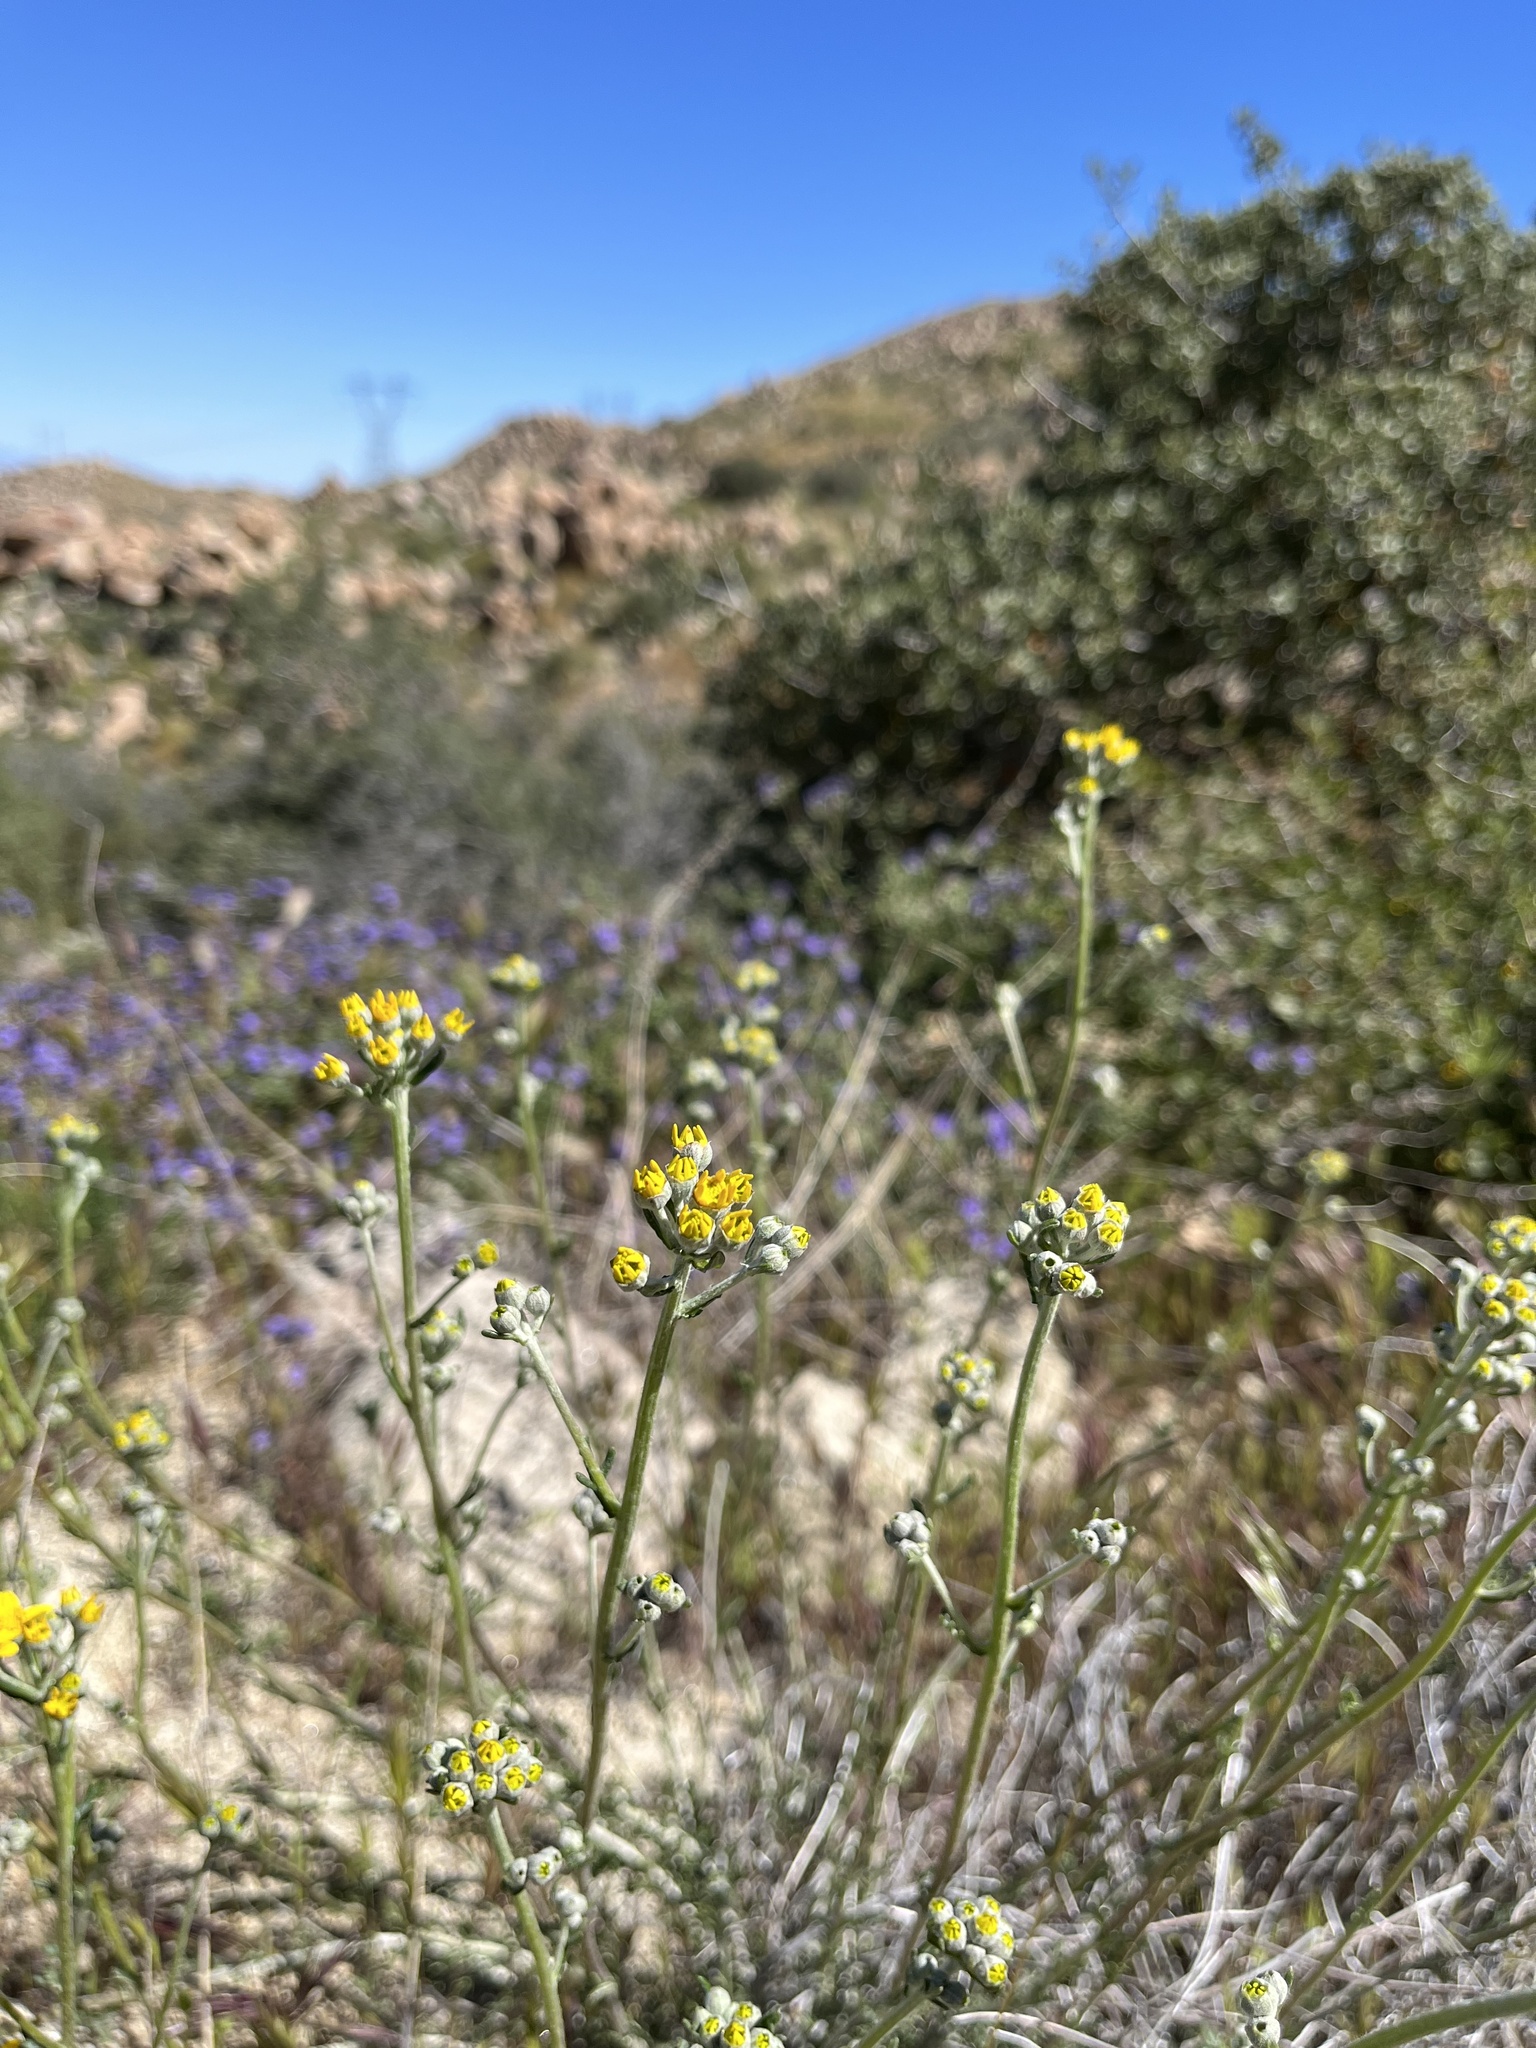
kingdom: Plantae
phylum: Tracheophyta
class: Magnoliopsida
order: Asterales
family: Asteraceae
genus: Eriophyllum
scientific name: Eriophyllum confertiflorum
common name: Golden-yarrow
